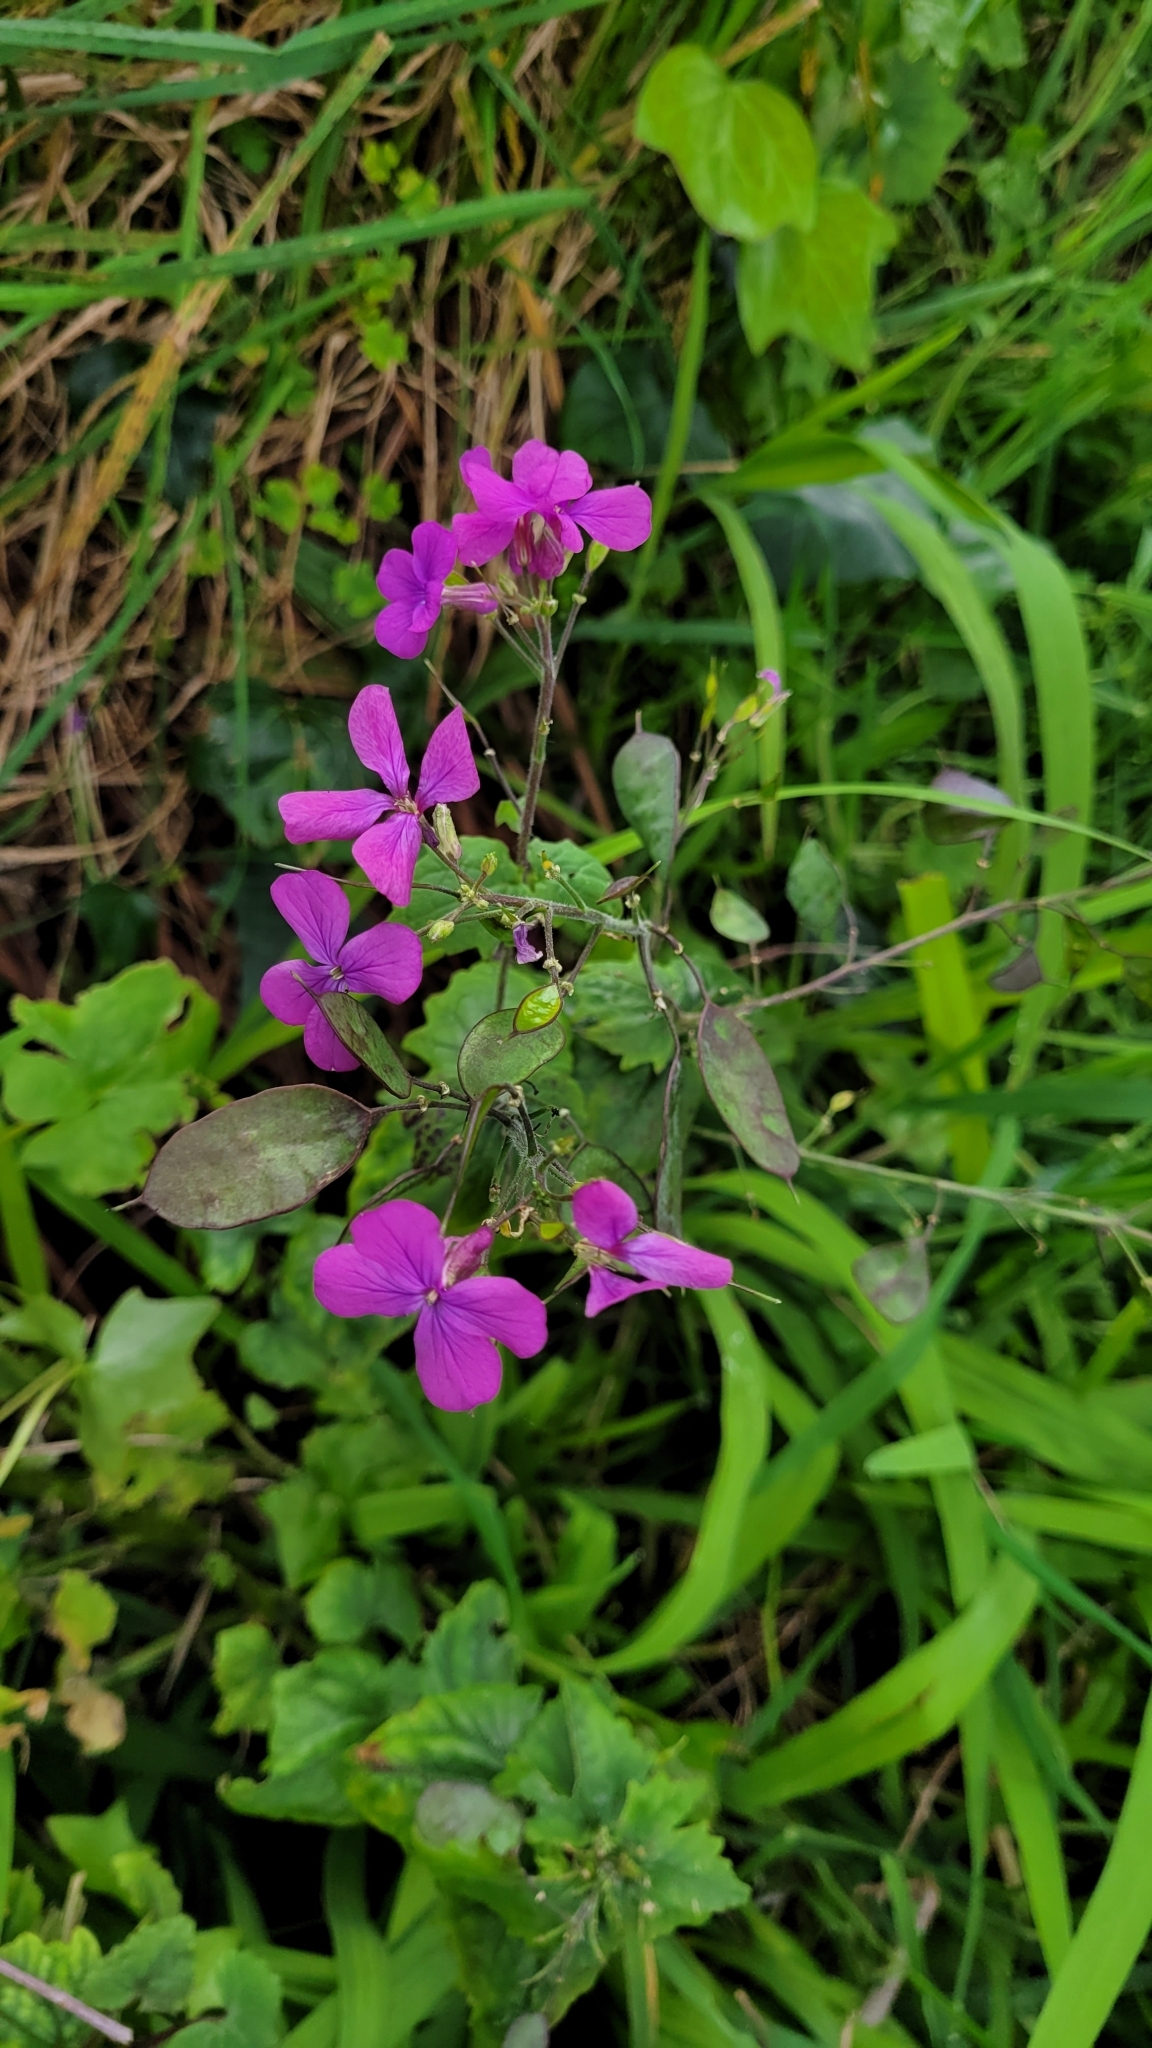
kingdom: Plantae
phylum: Tracheophyta
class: Magnoliopsida
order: Brassicales
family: Brassicaceae
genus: Lunaria
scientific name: Lunaria annua
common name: Honesty
